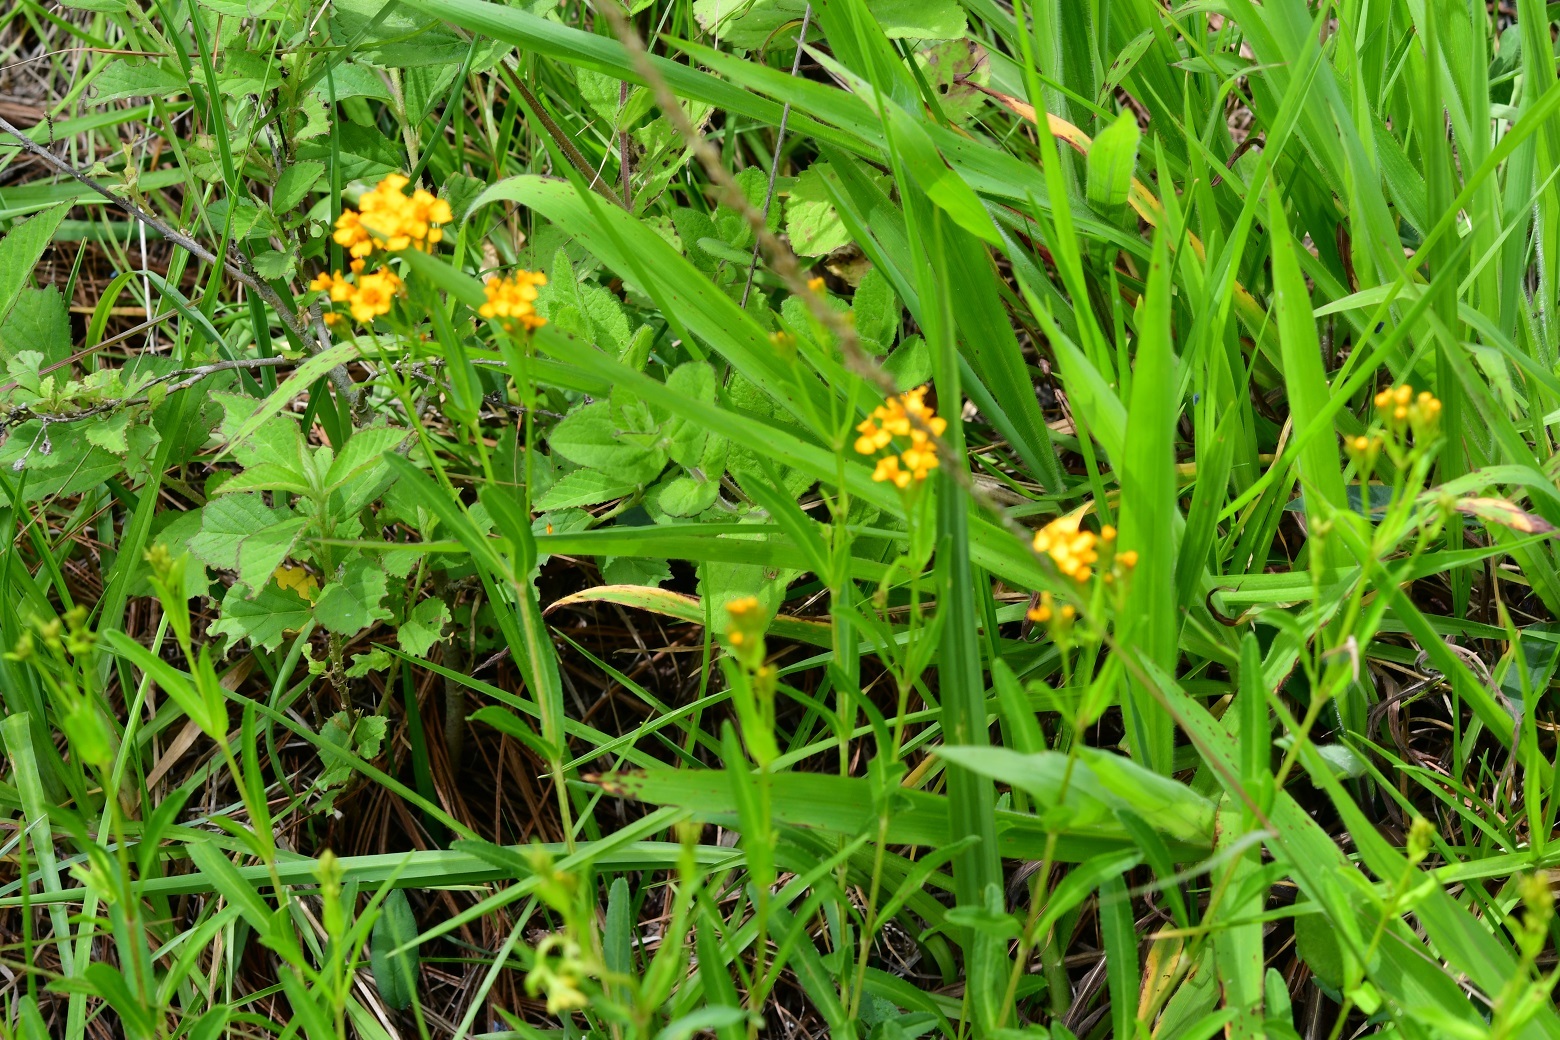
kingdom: Plantae
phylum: Tracheophyta
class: Magnoliopsida
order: Asterales
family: Asteraceae
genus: Tagetes
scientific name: Tagetes lucida
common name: Sweetscented marigold
